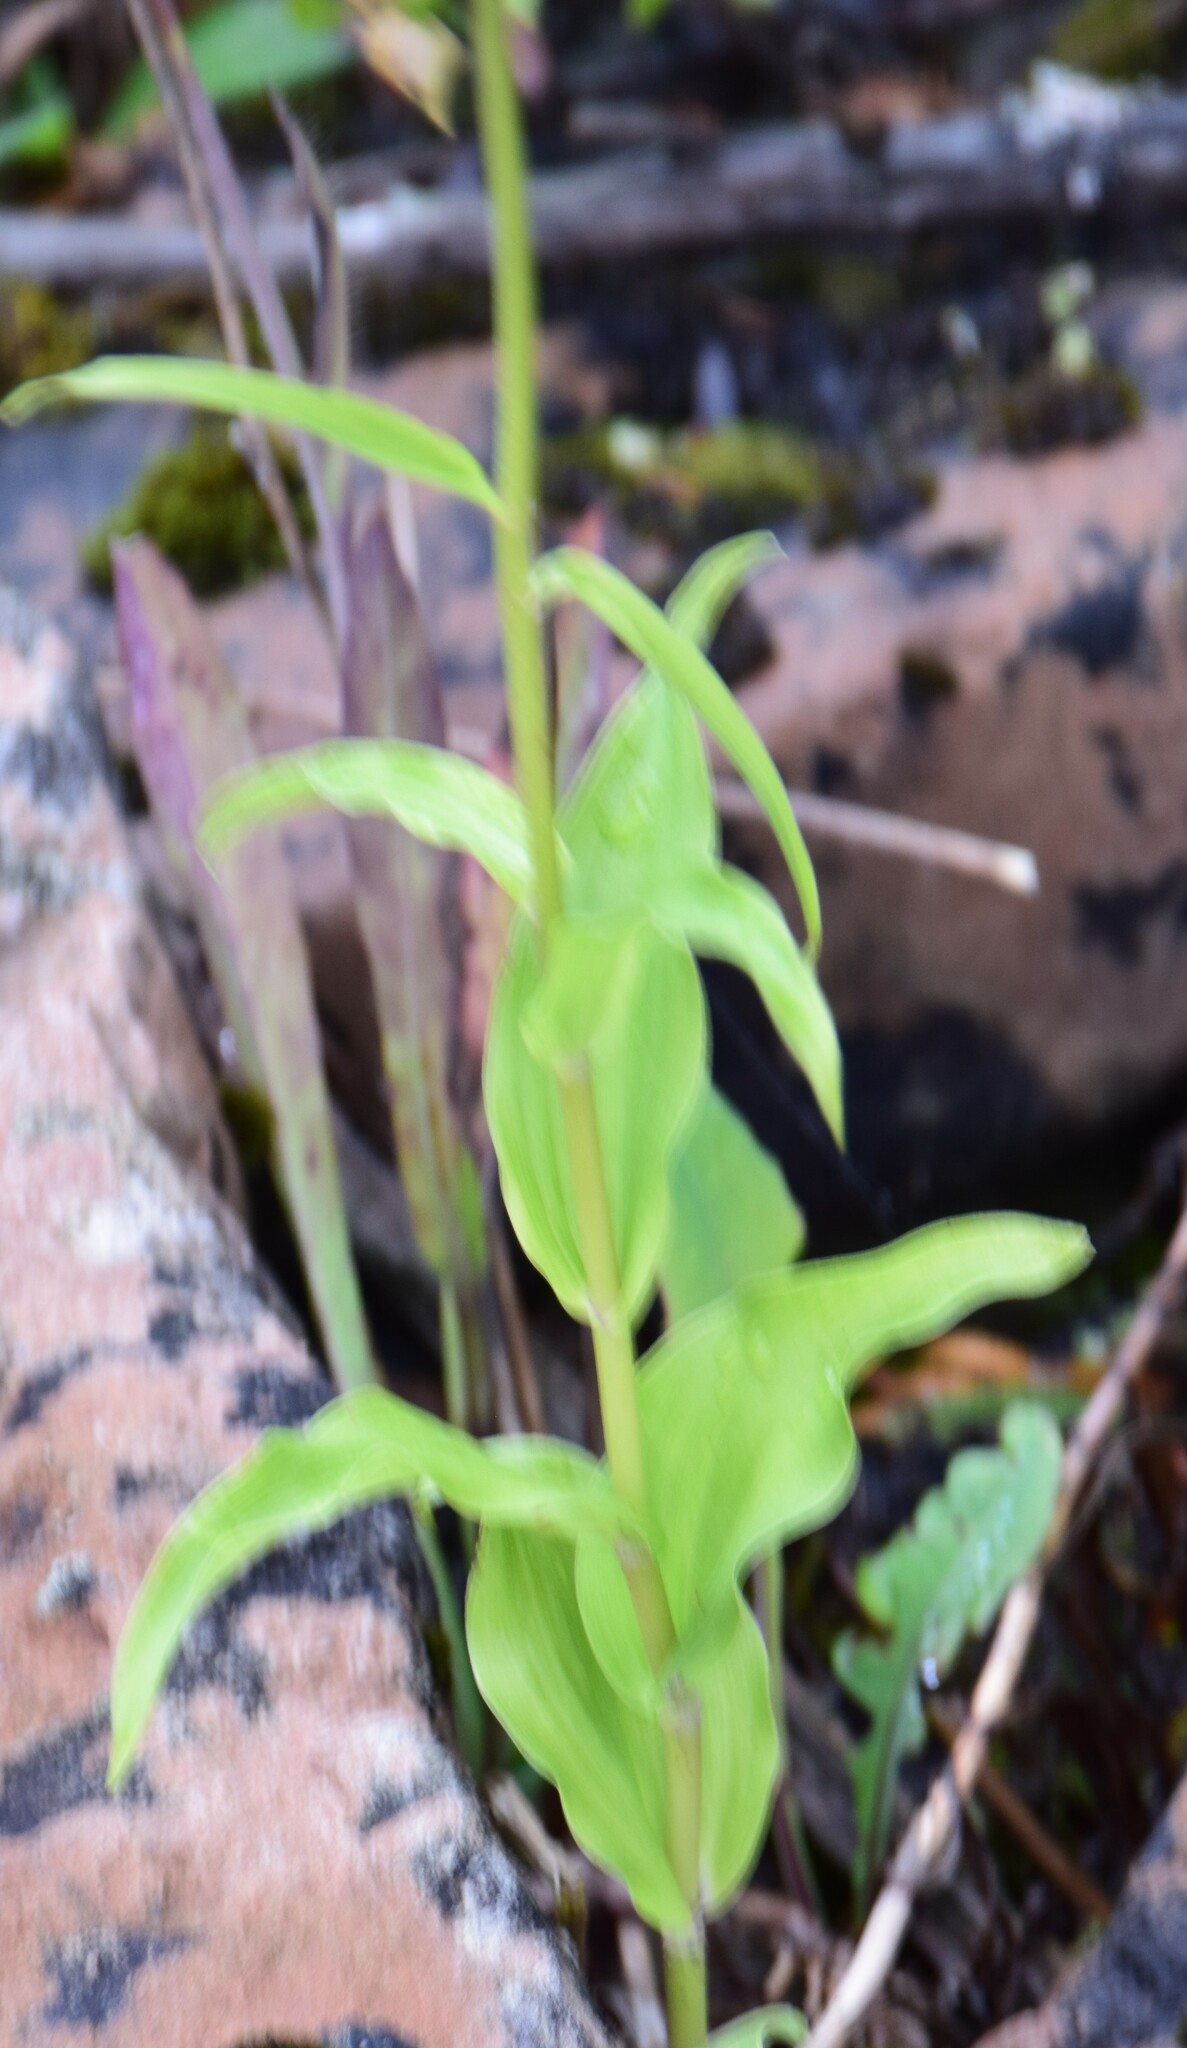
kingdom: Plantae
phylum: Tracheophyta
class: Liliopsida
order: Asparagales
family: Orchidaceae
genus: Epipactis
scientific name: Epipactis helleborine
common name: Broad-leaved helleborine
